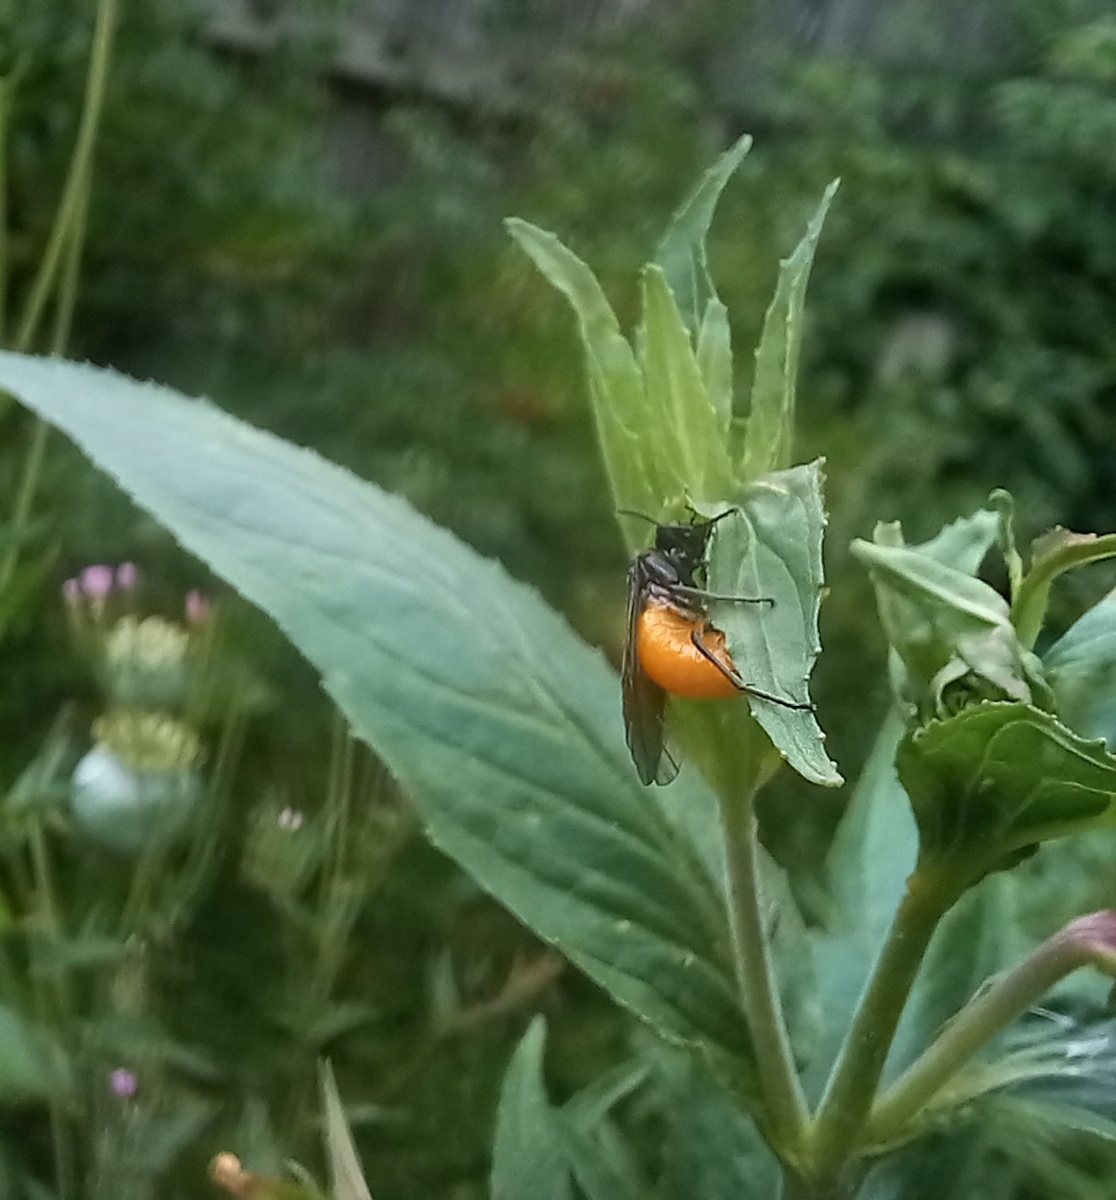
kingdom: Animalia
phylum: Arthropoda
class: Insecta
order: Hymenoptera
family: Argidae
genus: Arge
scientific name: Arge pagana
